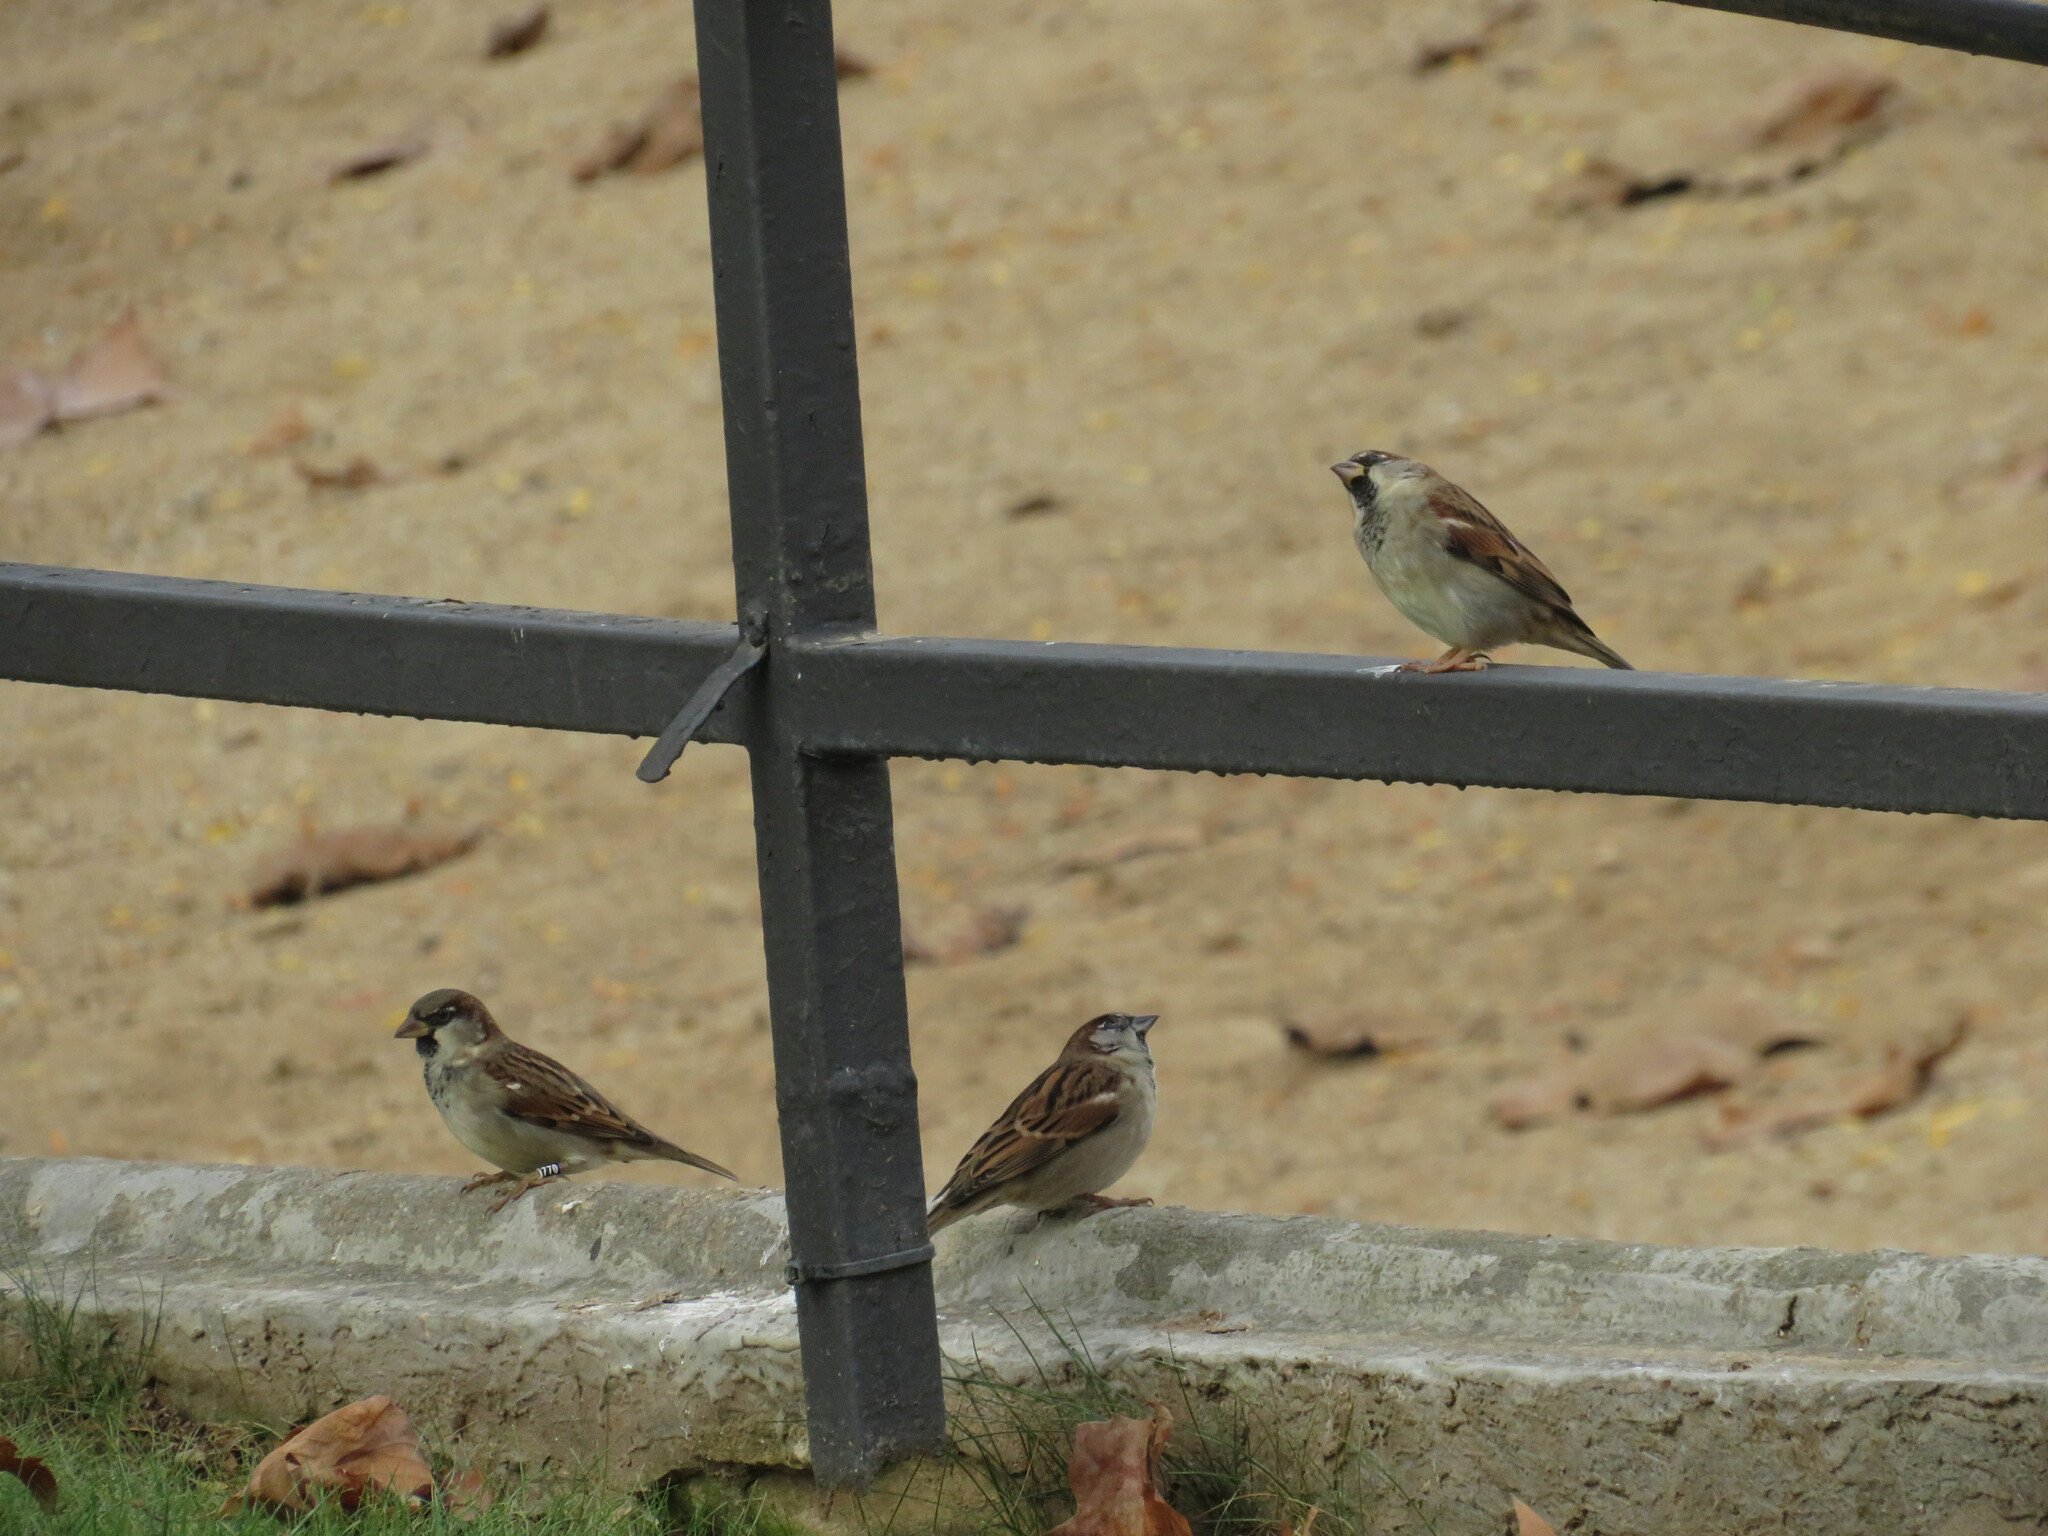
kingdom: Animalia
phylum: Chordata
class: Aves
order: Passeriformes
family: Passeridae
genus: Passer
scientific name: Passer domesticus
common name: House sparrow
